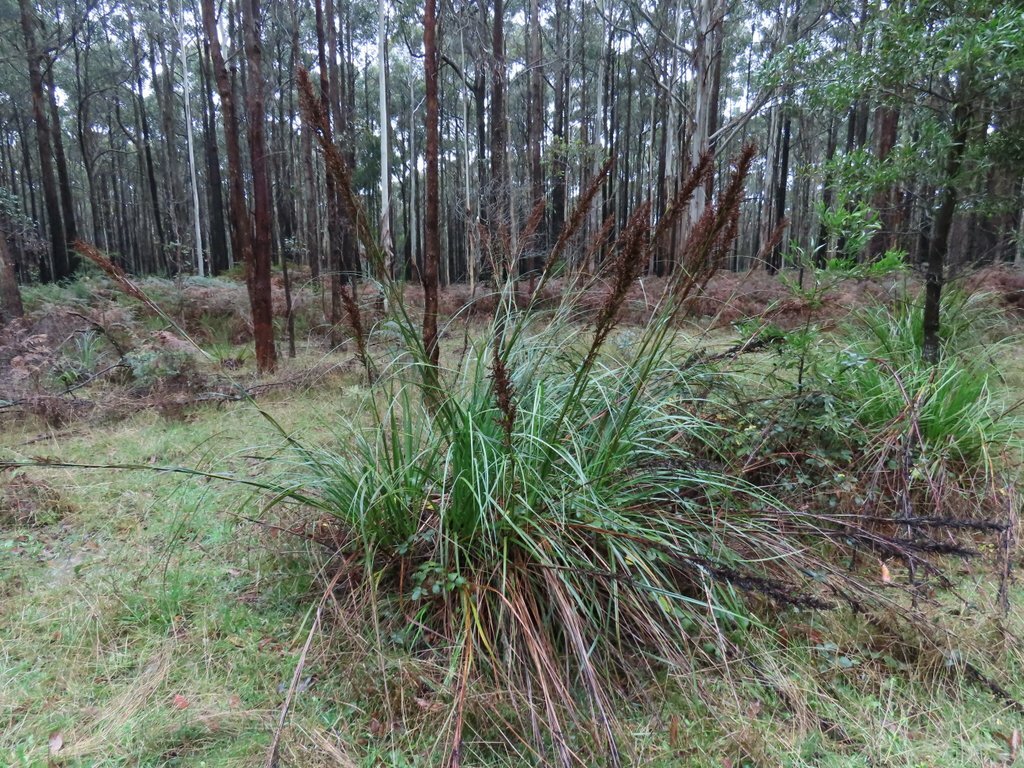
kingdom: Plantae
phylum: Tracheophyta
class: Liliopsida
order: Poales
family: Cyperaceae
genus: Gahnia
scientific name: Gahnia sieberiana
